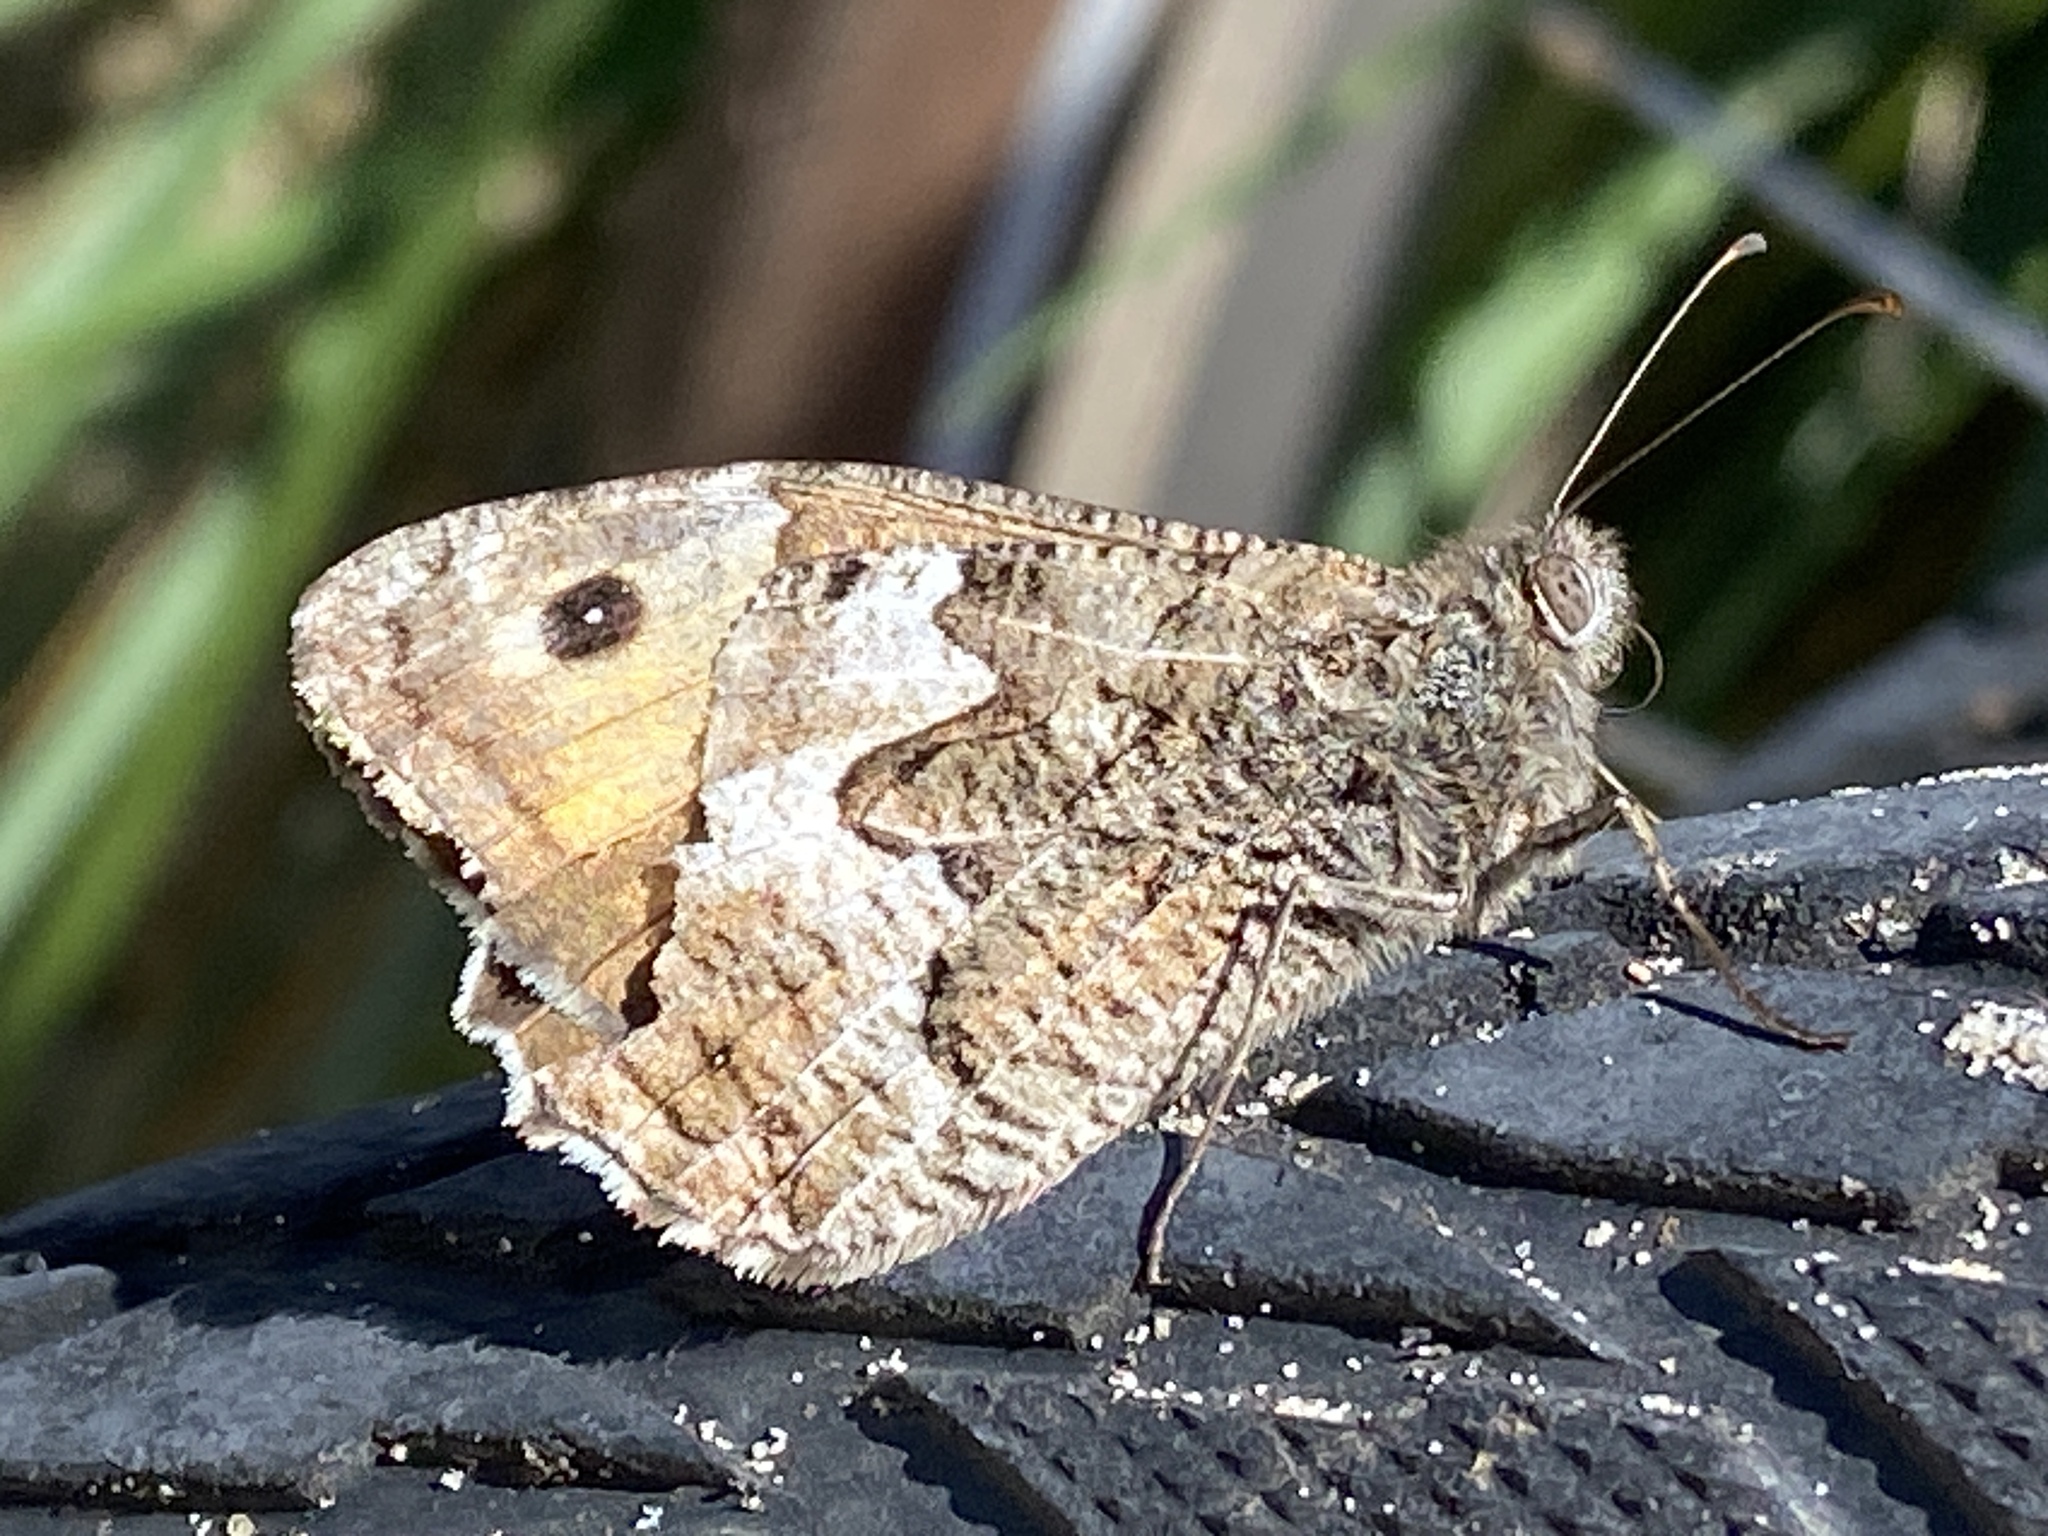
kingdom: Animalia
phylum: Arthropoda
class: Insecta
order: Lepidoptera
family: Nymphalidae
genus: Hipparchia
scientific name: Hipparchia semele
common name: Grayling
